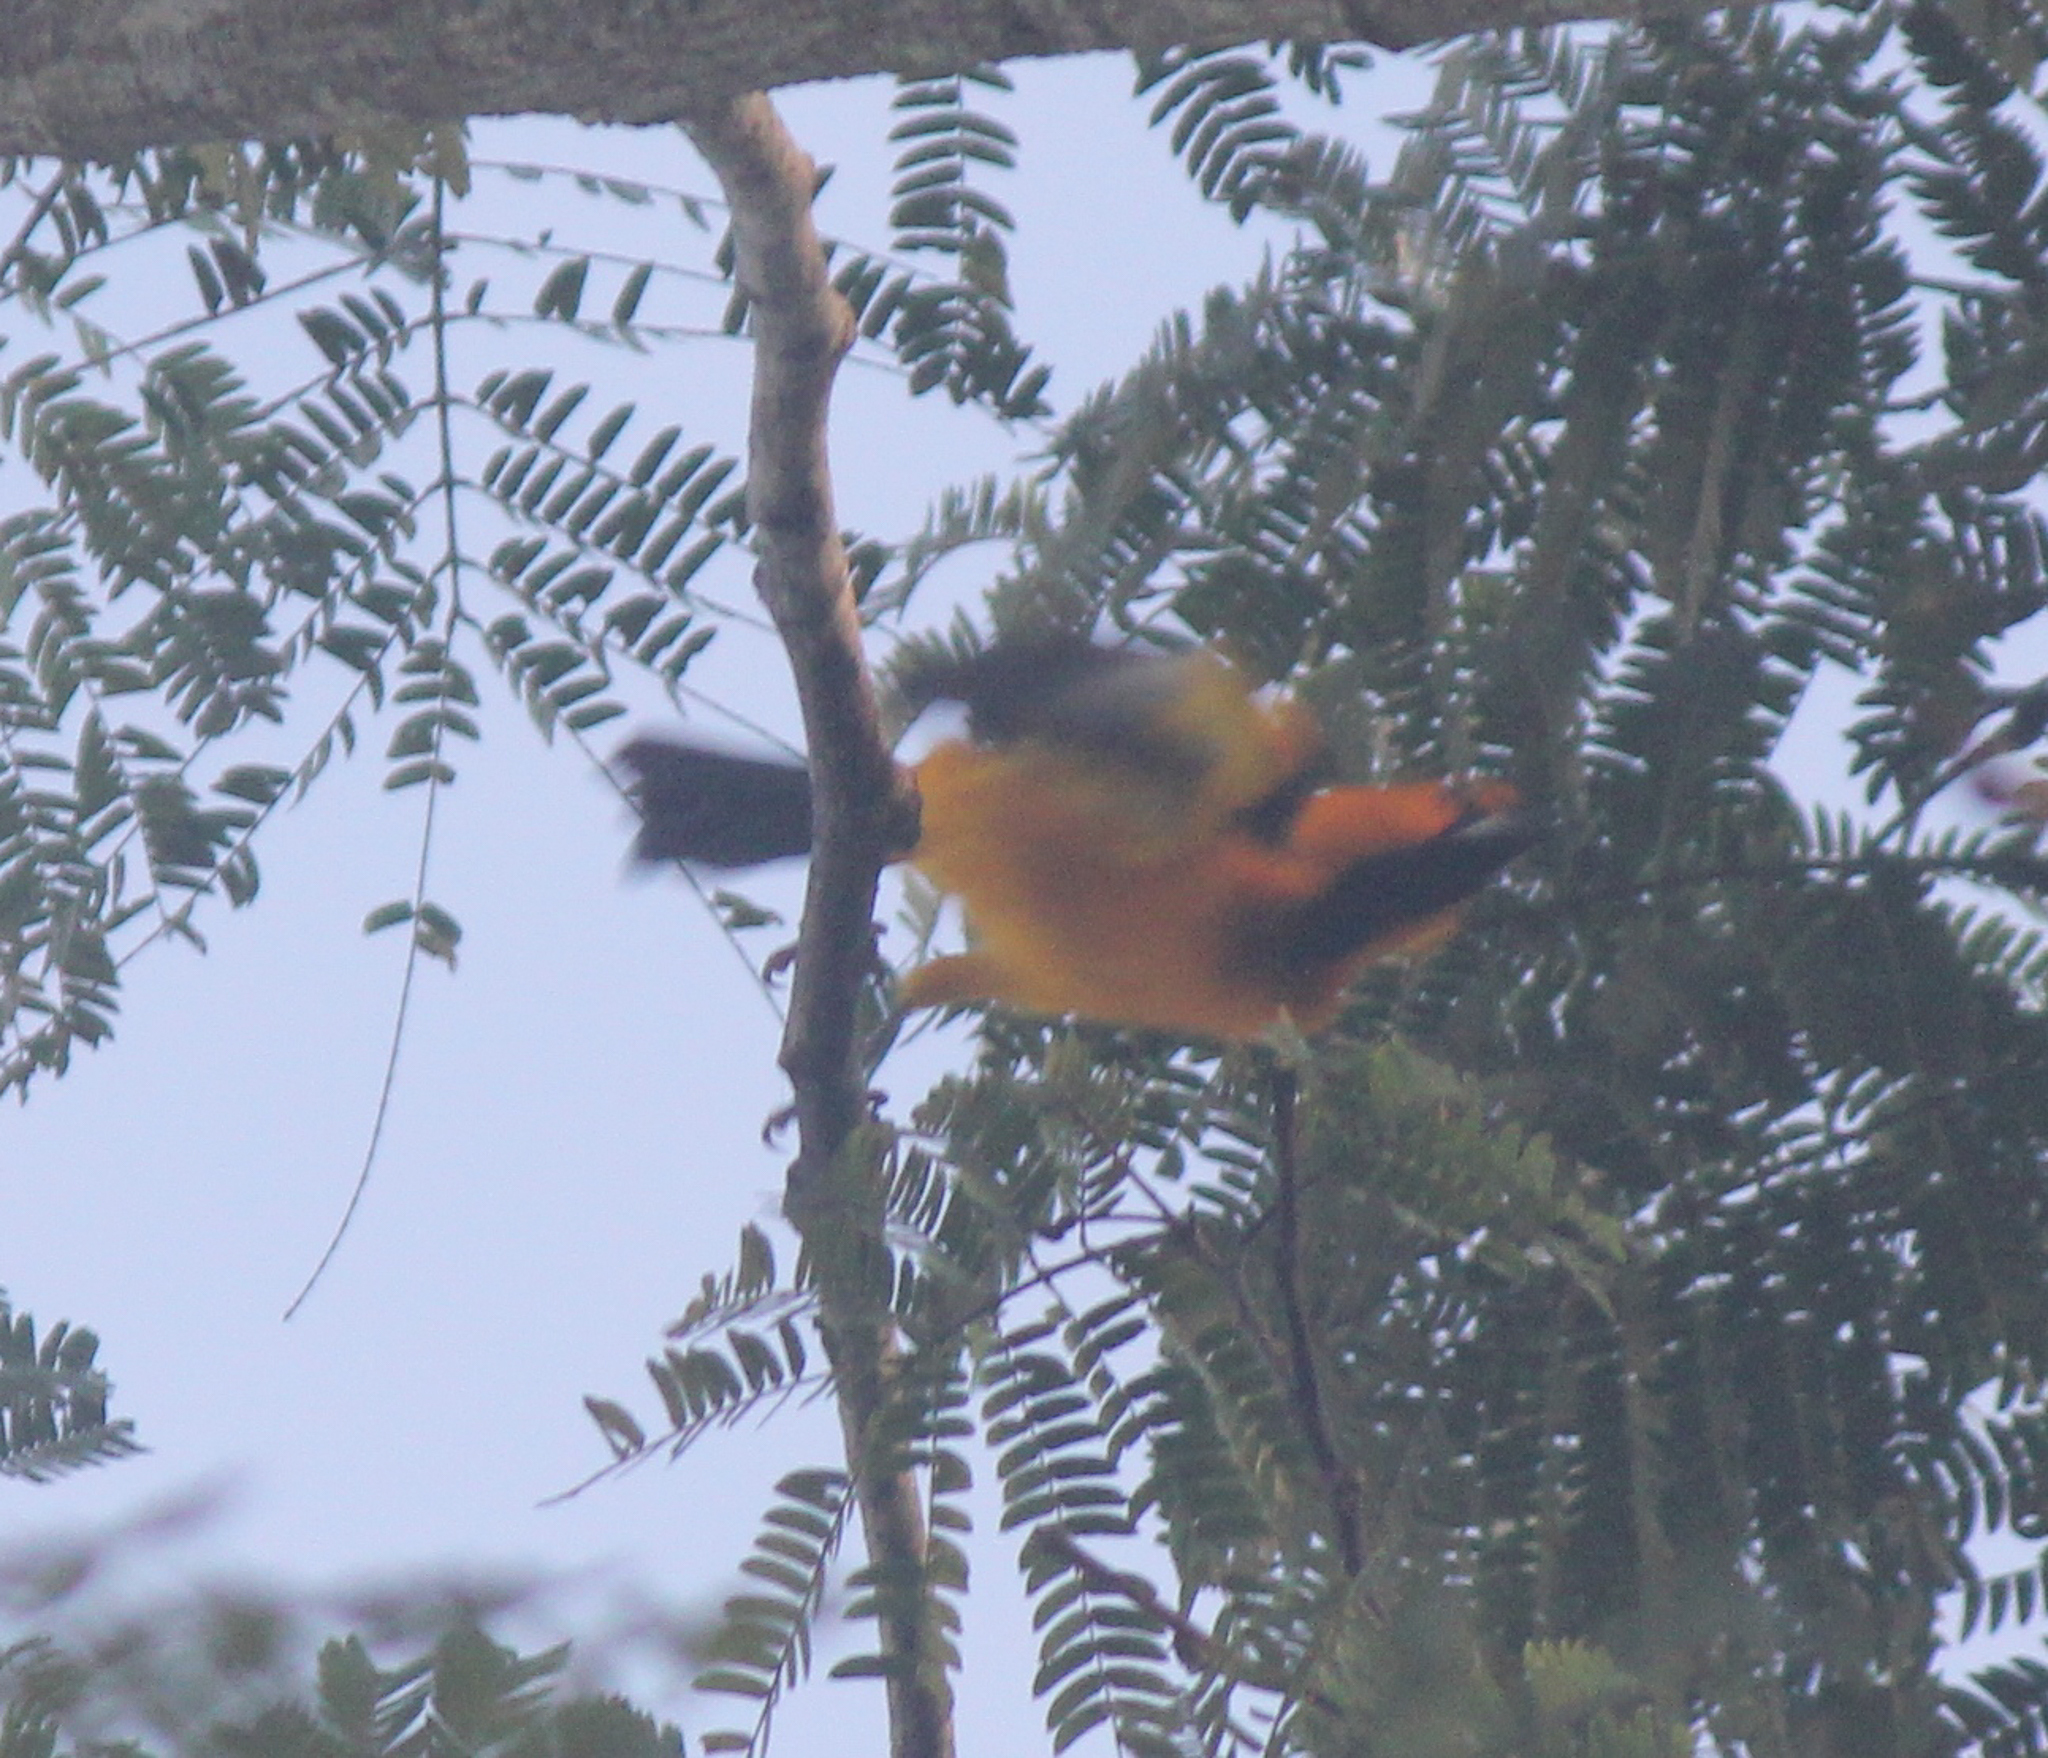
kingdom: Animalia
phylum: Chordata
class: Aves
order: Passeriformes
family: Icteridae
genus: Icterus
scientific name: Icterus gularis
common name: Altamira oriole
